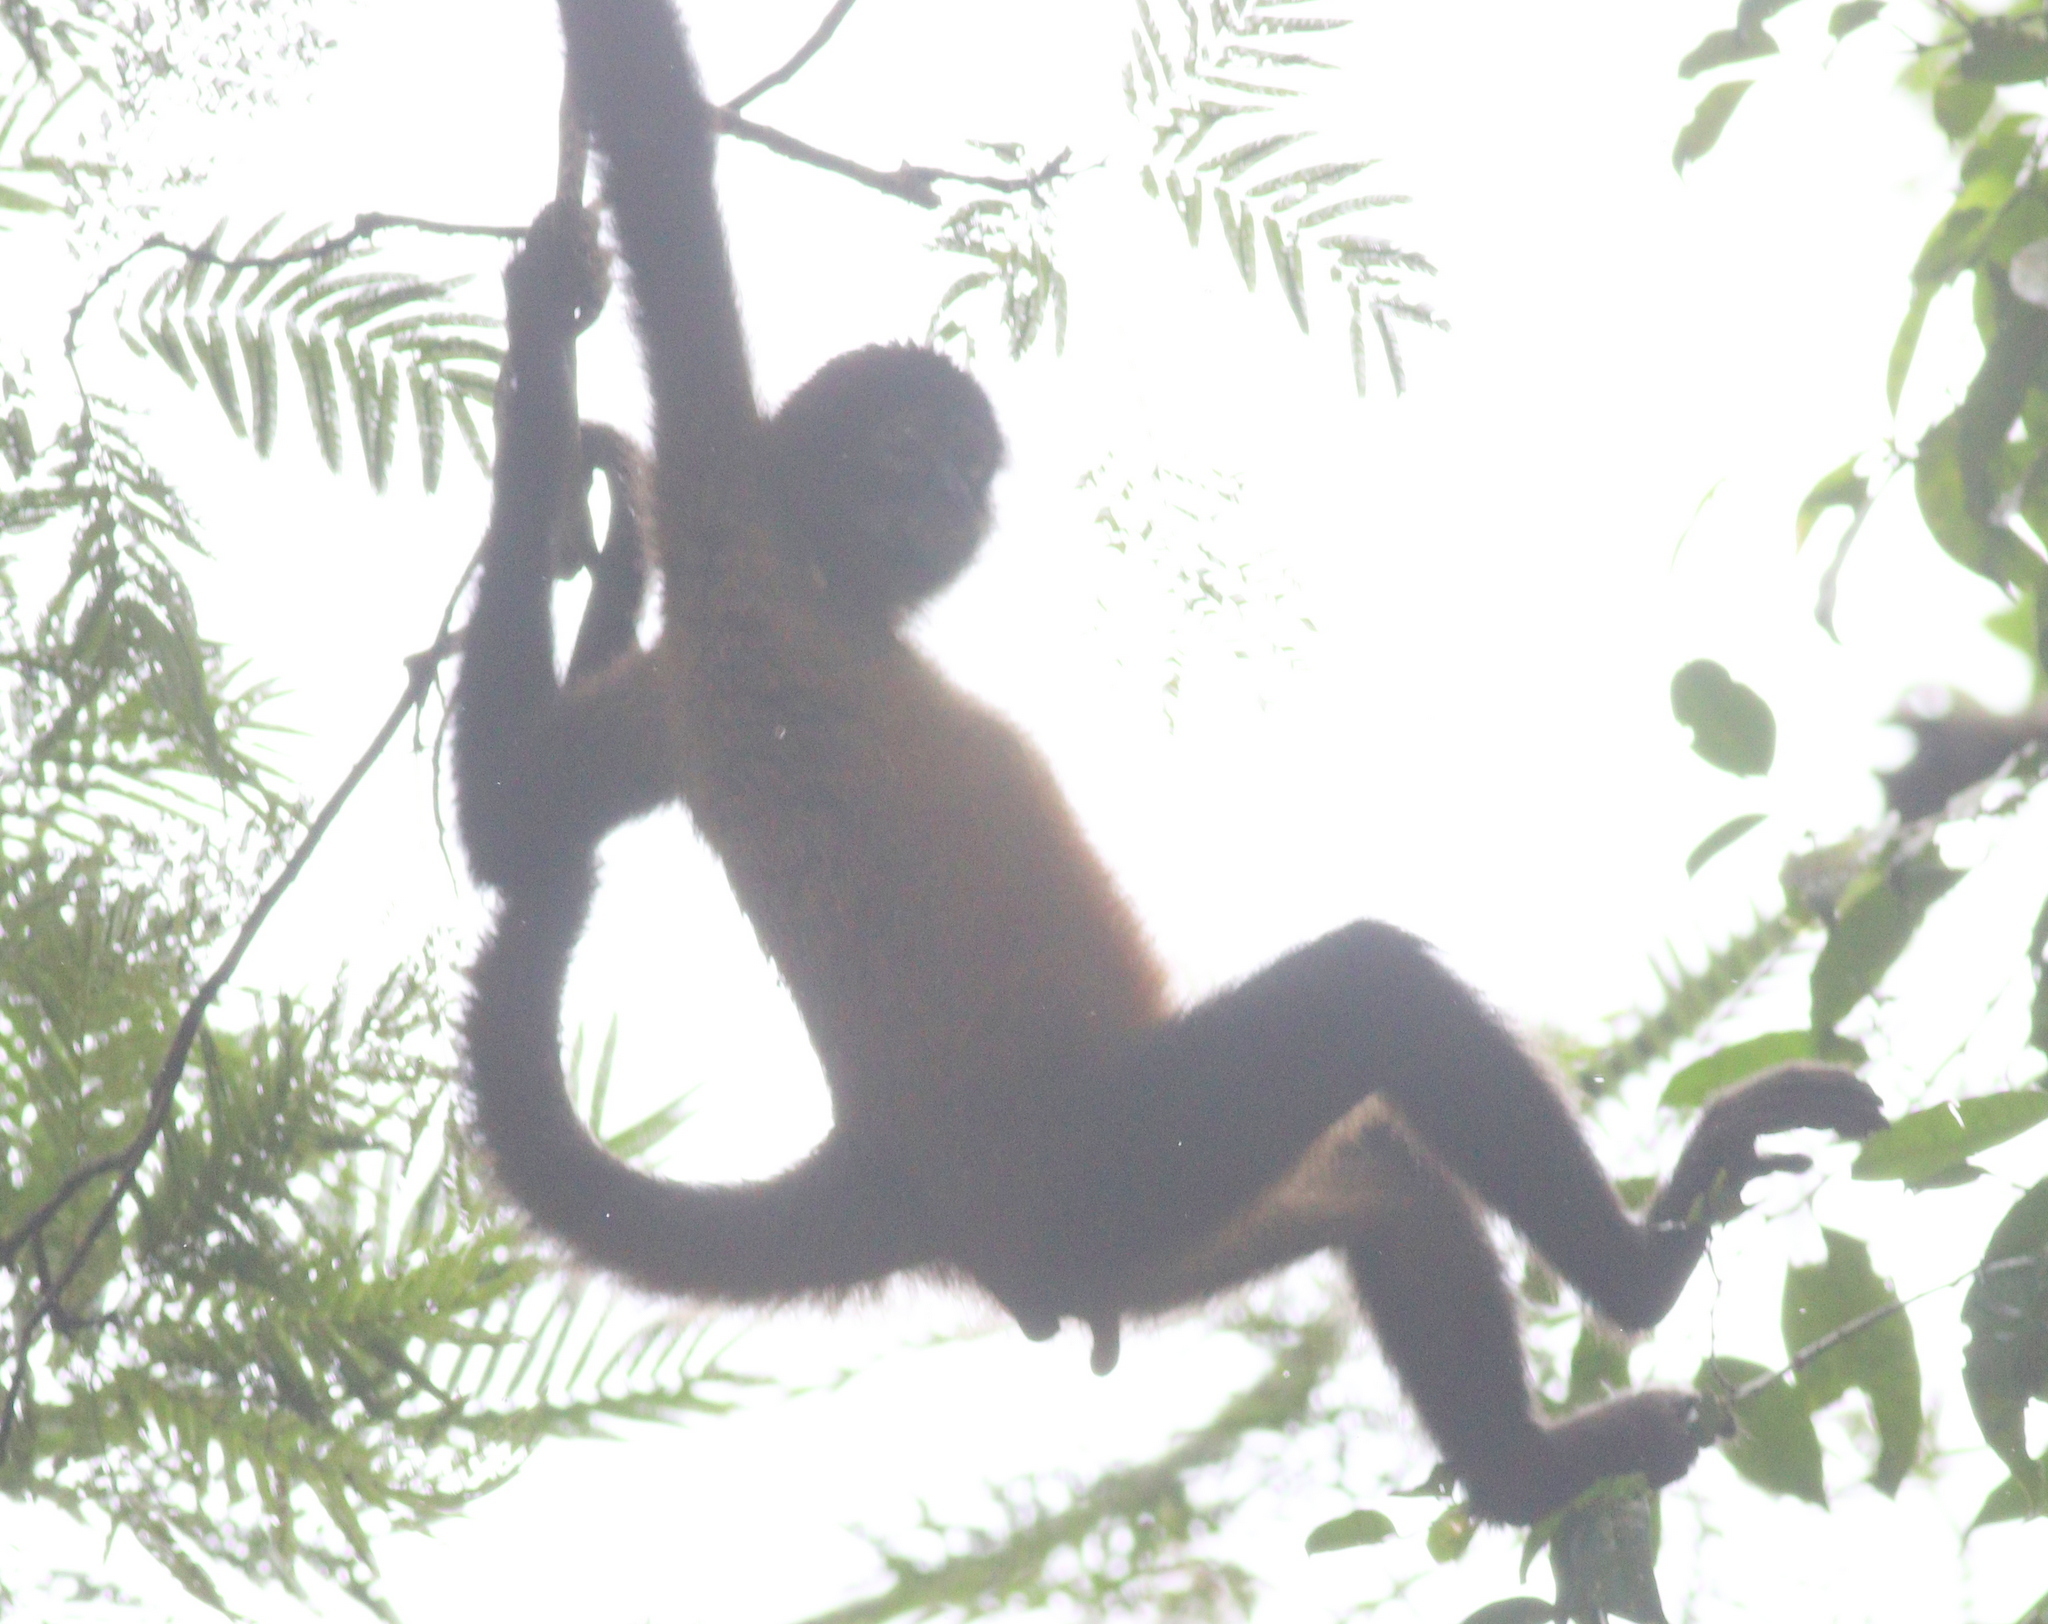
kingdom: Animalia
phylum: Chordata
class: Mammalia
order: Primates
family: Atelidae
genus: Ateles
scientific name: Ateles geoffroyi
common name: Black-handed spider monkey
